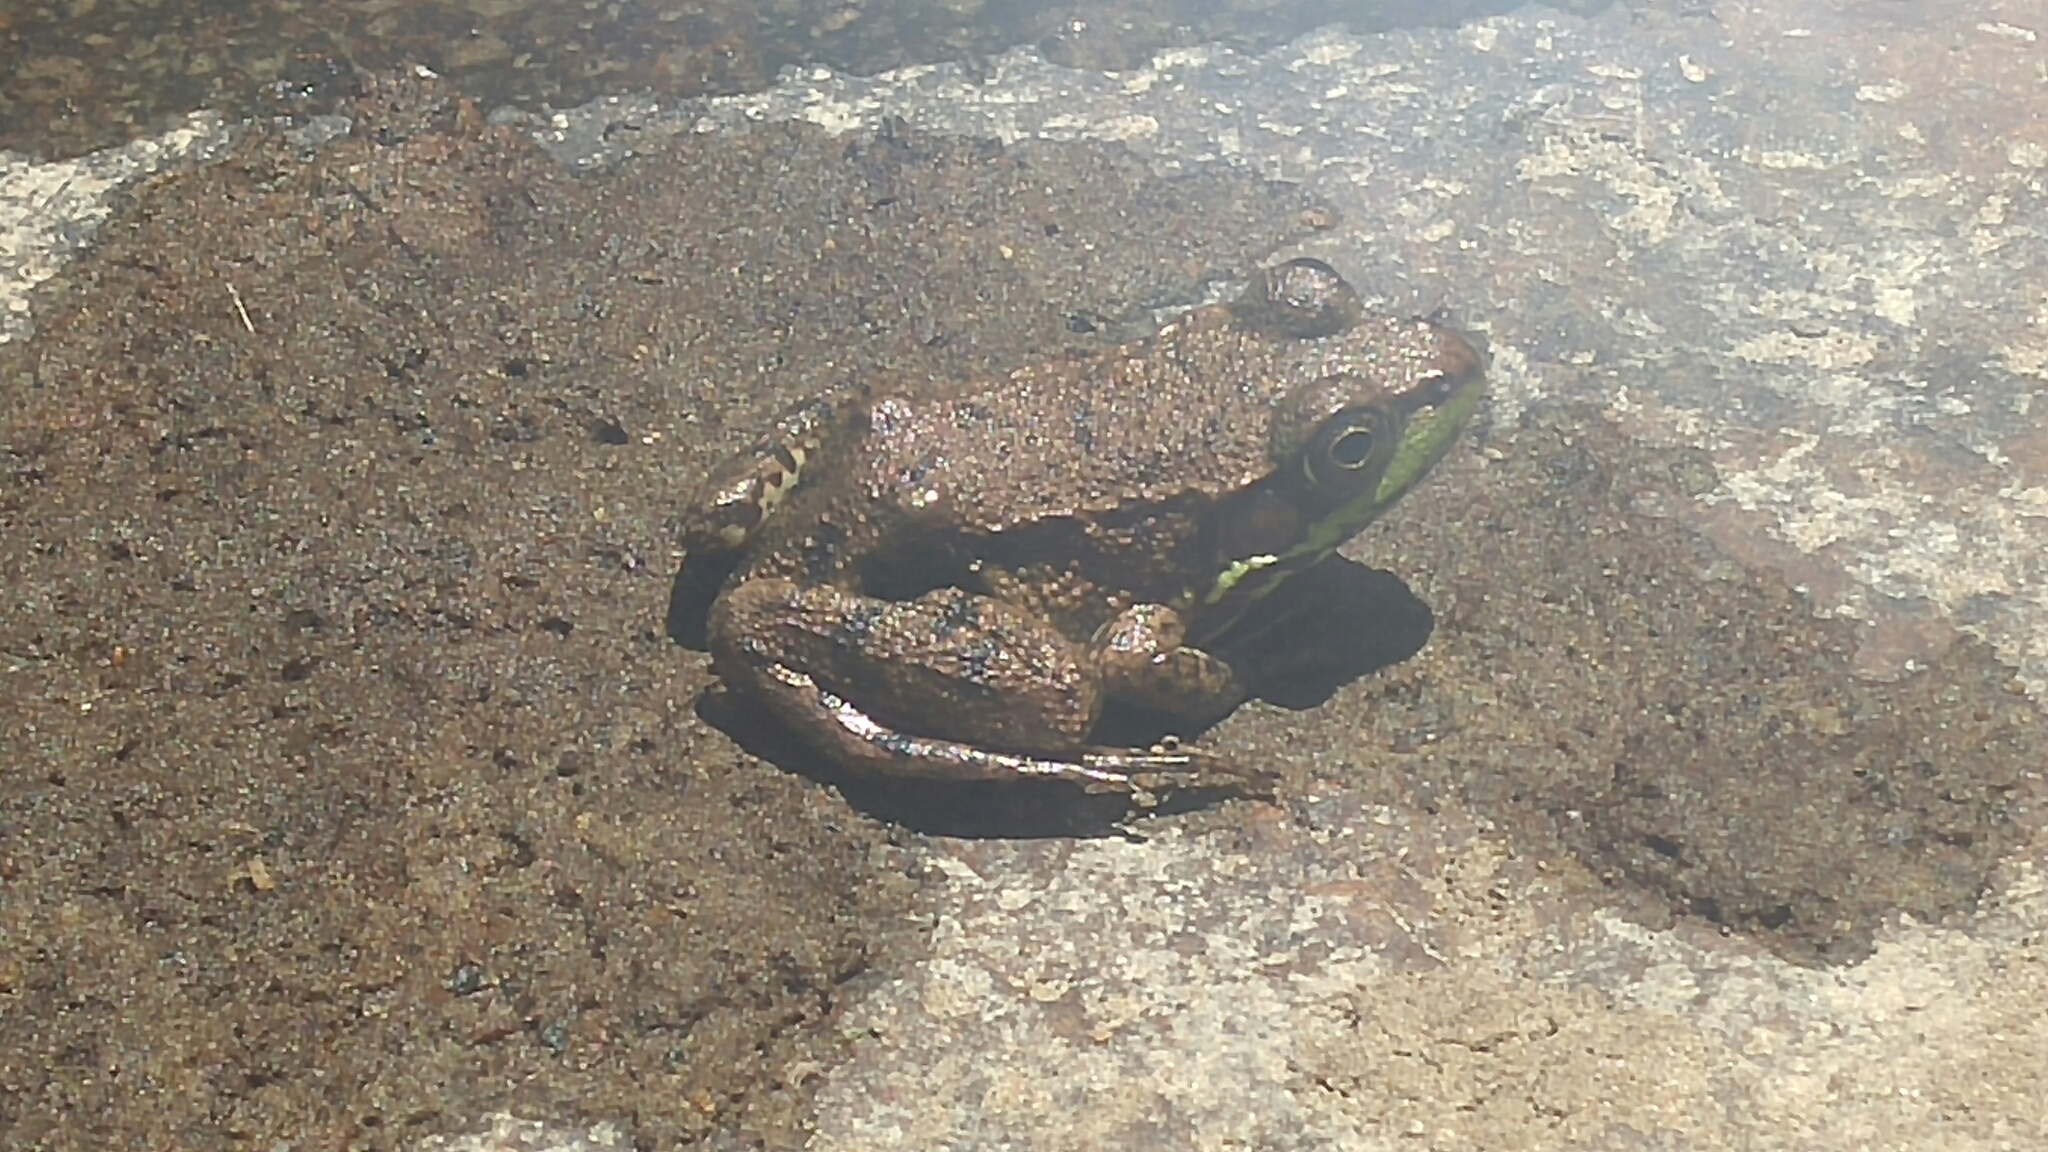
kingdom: Animalia
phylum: Chordata
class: Amphibia
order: Anura
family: Ranidae
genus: Lithobates
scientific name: Lithobates clamitans
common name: Green frog
